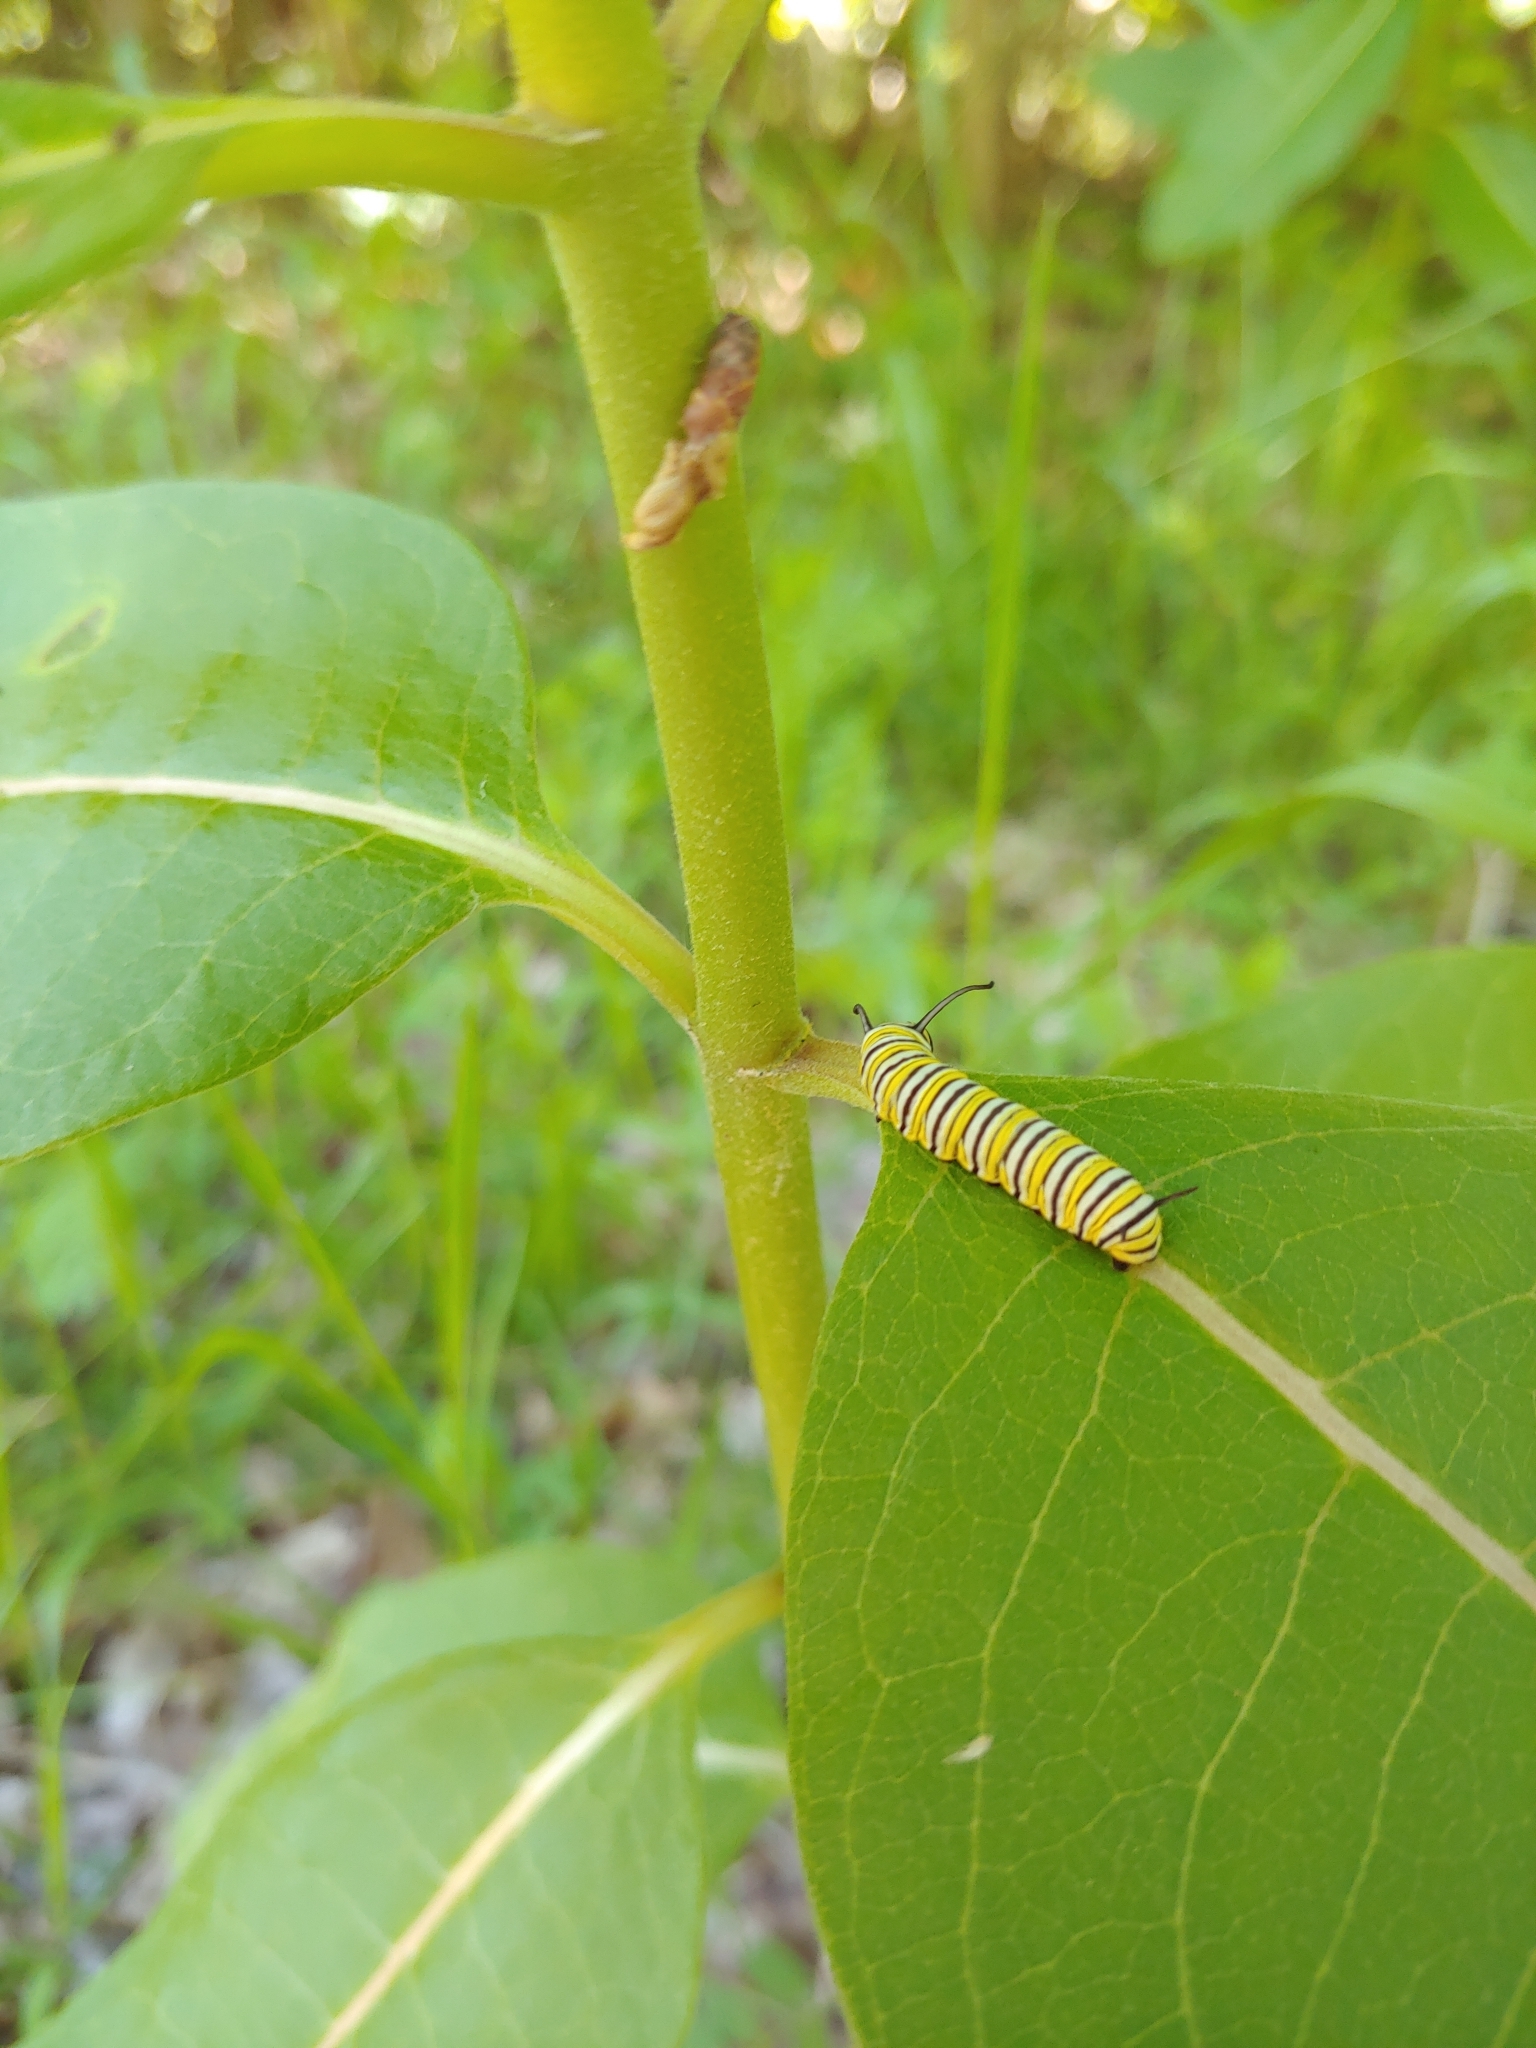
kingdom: Animalia
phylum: Arthropoda
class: Insecta
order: Lepidoptera
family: Nymphalidae
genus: Danaus
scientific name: Danaus plexippus
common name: Monarch
